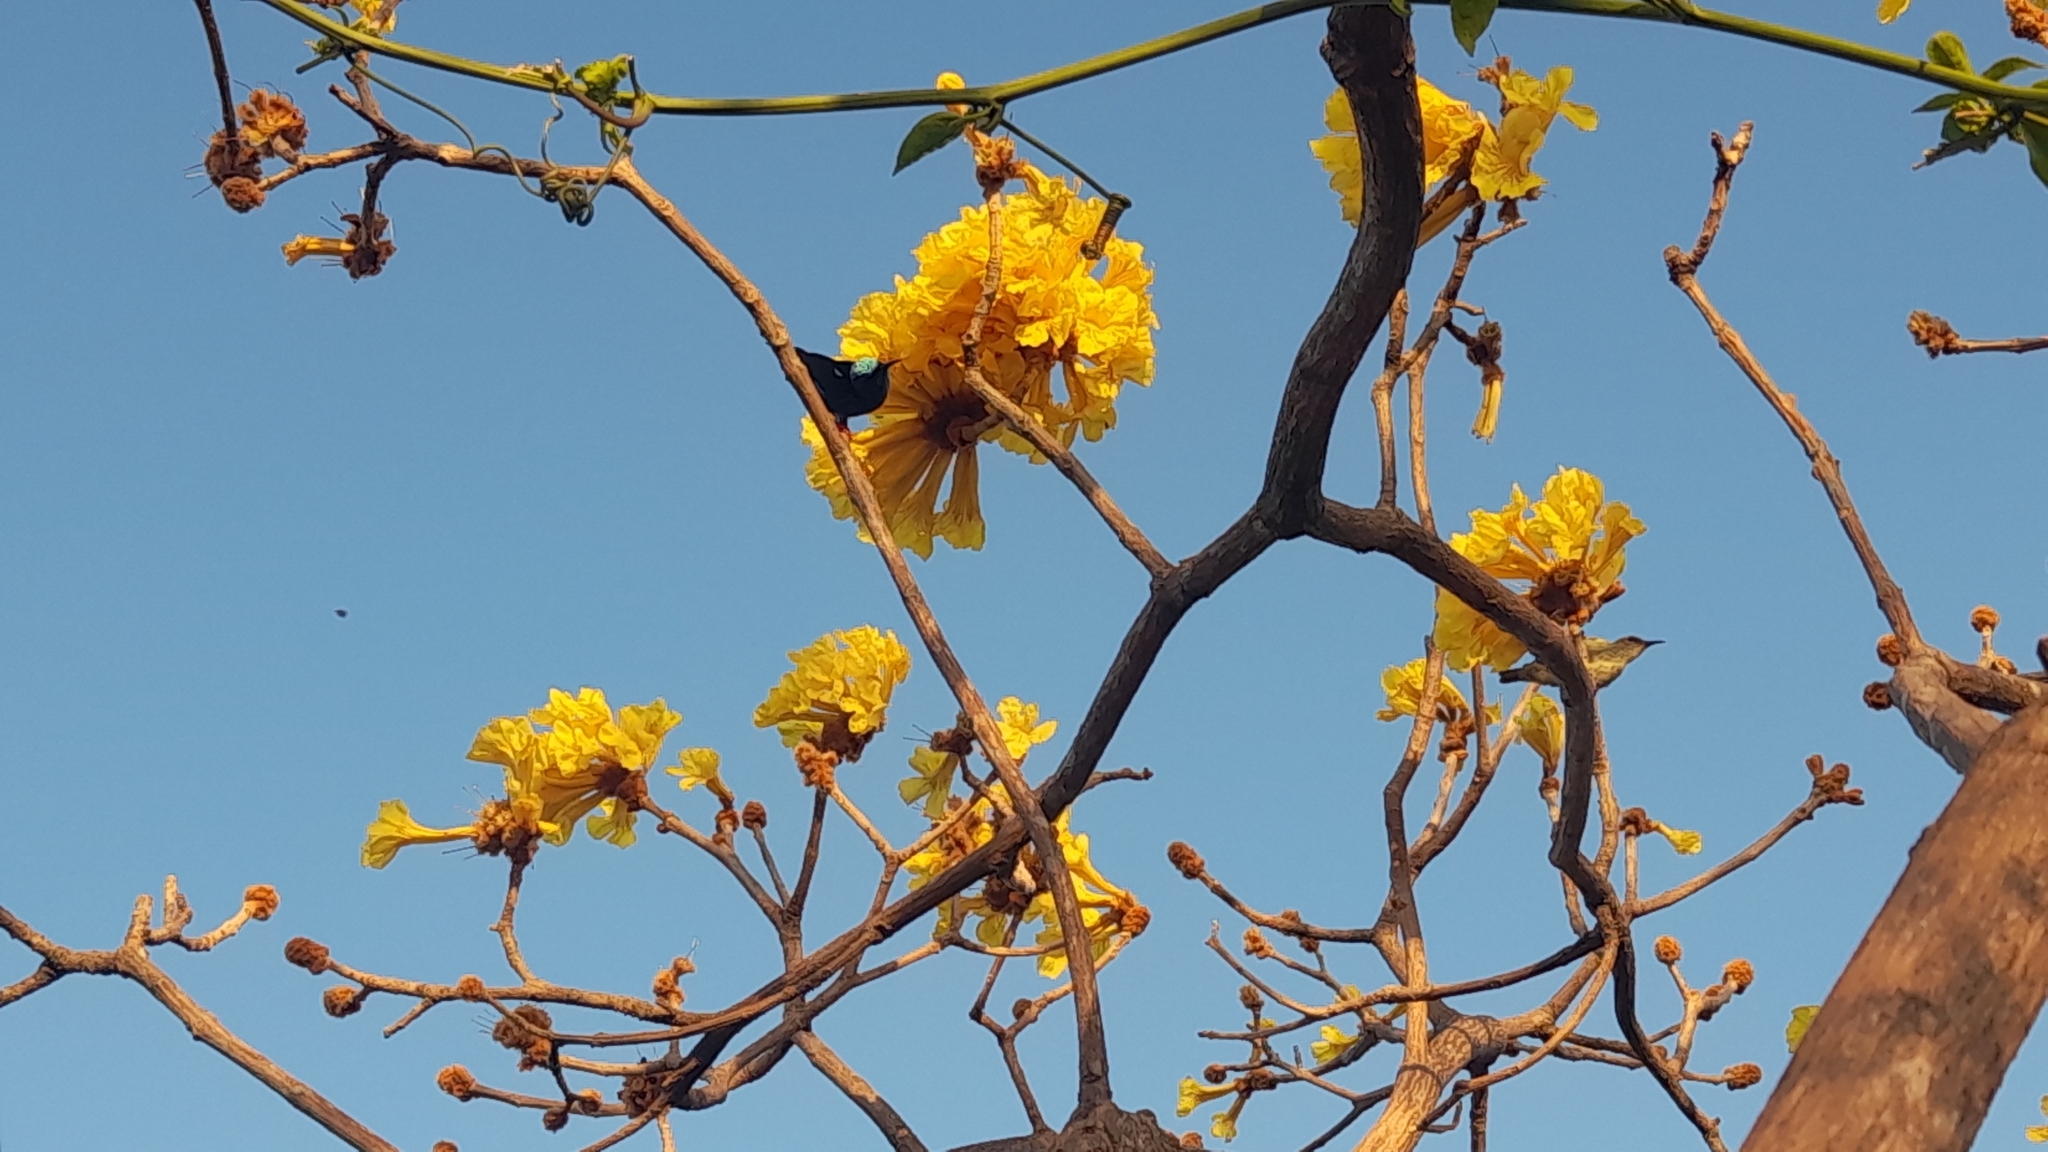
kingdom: Animalia
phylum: Chordata
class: Aves
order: Passeriformes
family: Thraupidae
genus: Cyanerpes
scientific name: Cyanerpes cyaneus
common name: Red-legged honeycreeper
